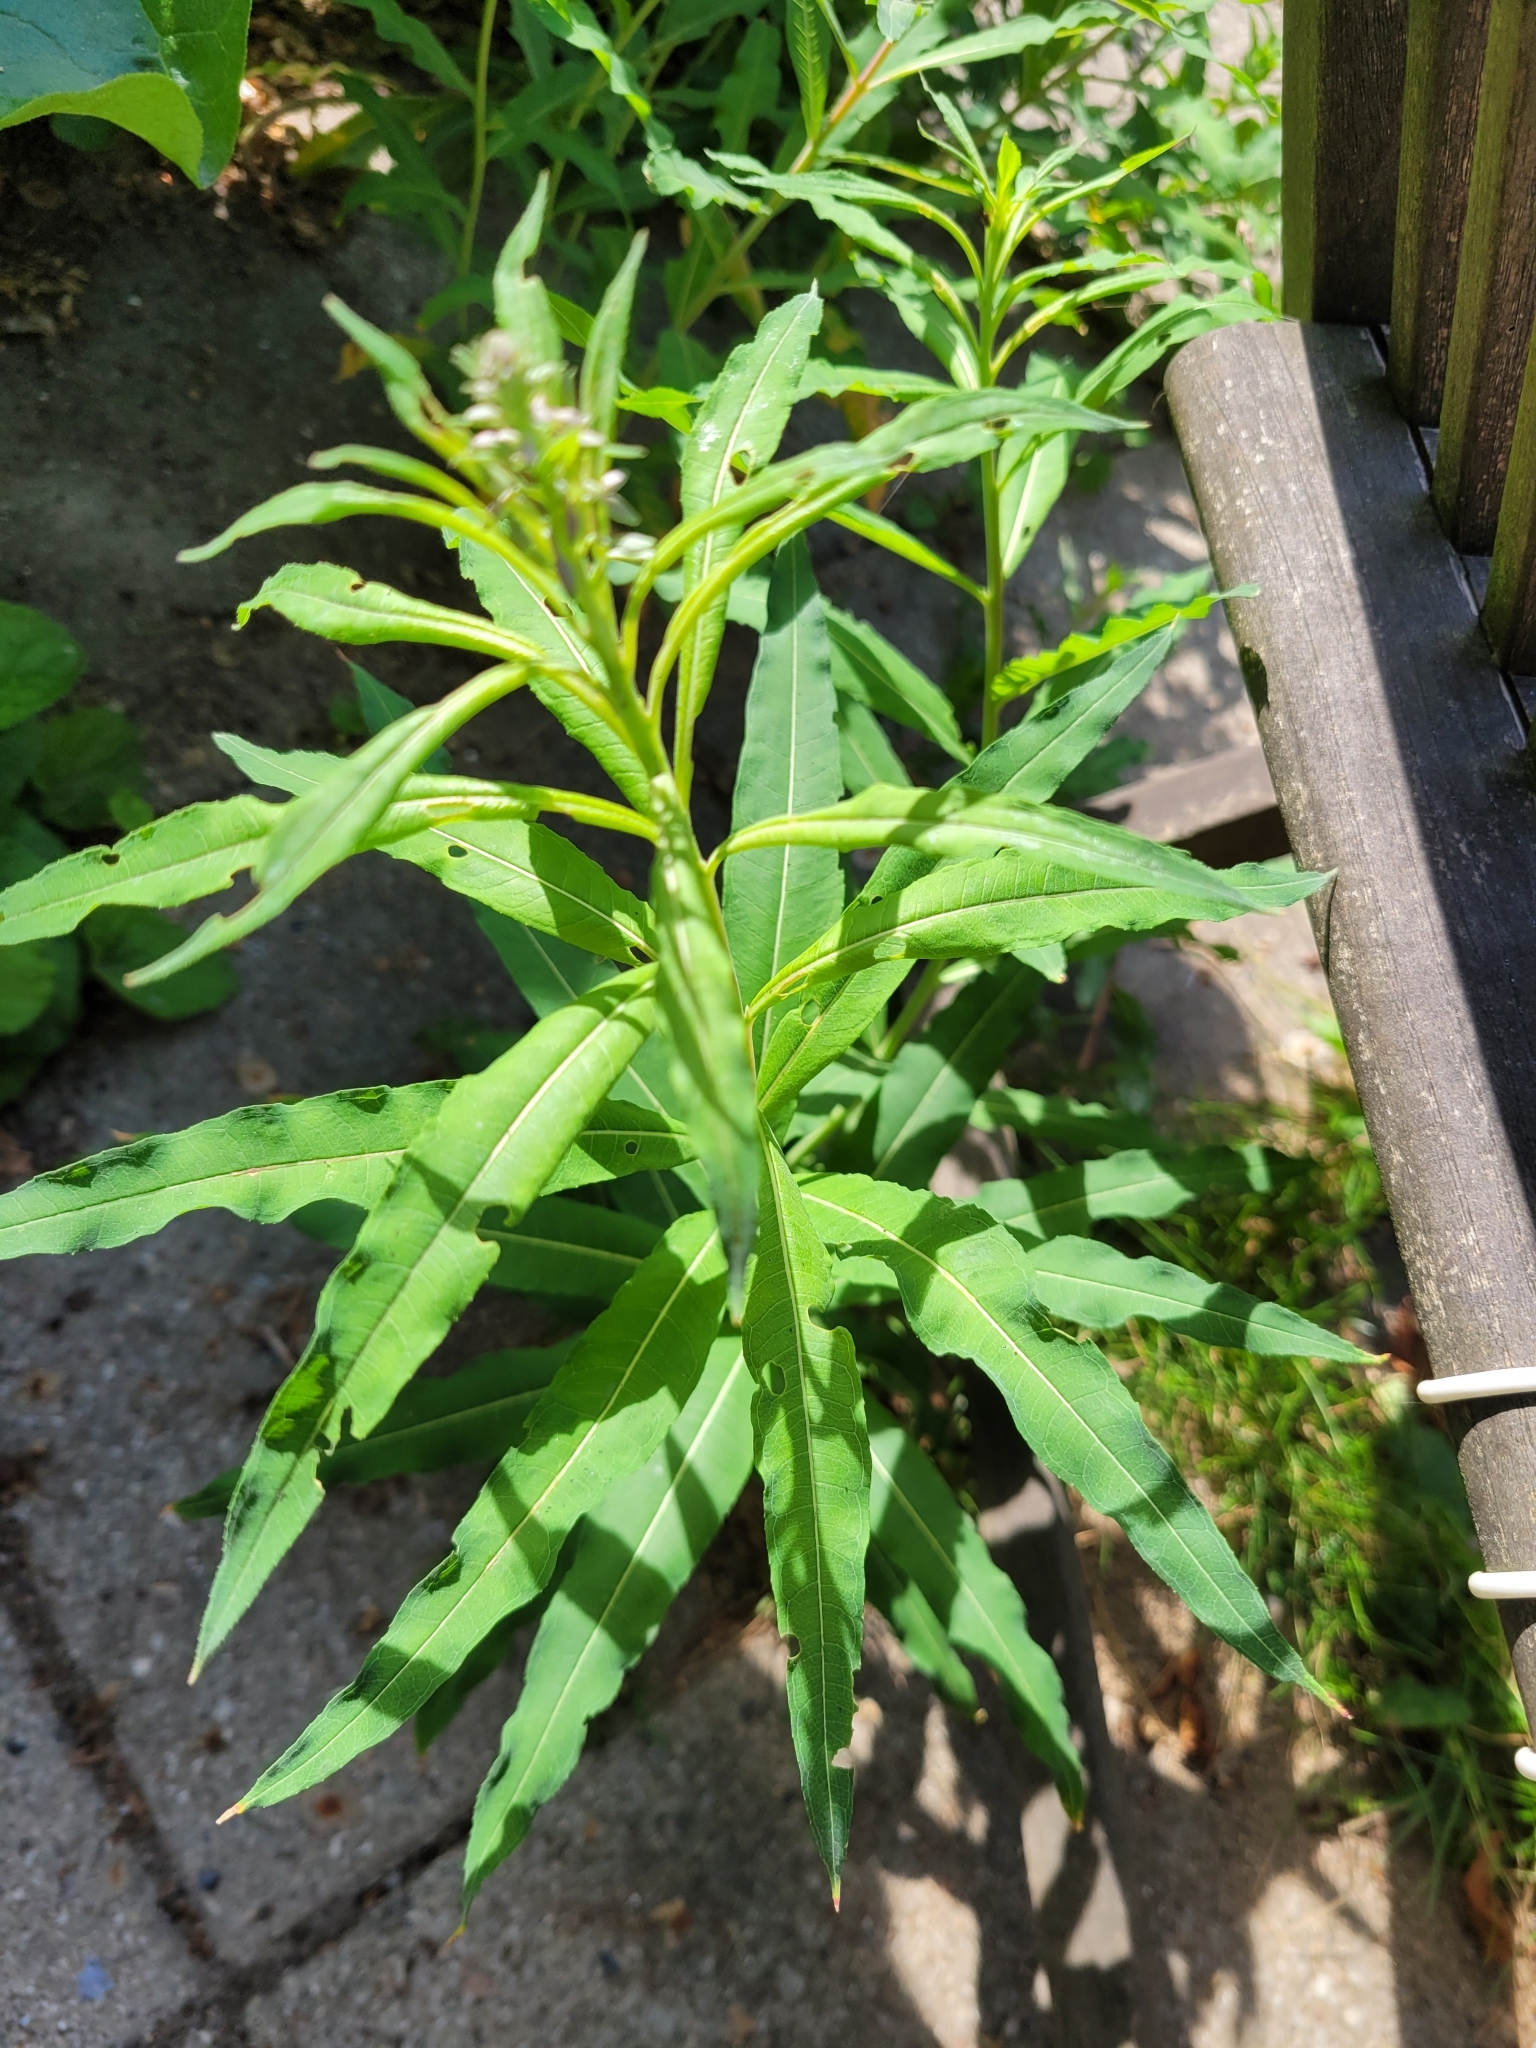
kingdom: Plantae
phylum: Tracheophyta
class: Magnoliopsida
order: Myrtales
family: Onagraceae
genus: Chamaenerion
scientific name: Chamaenerion angustifolium
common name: Fireweed
